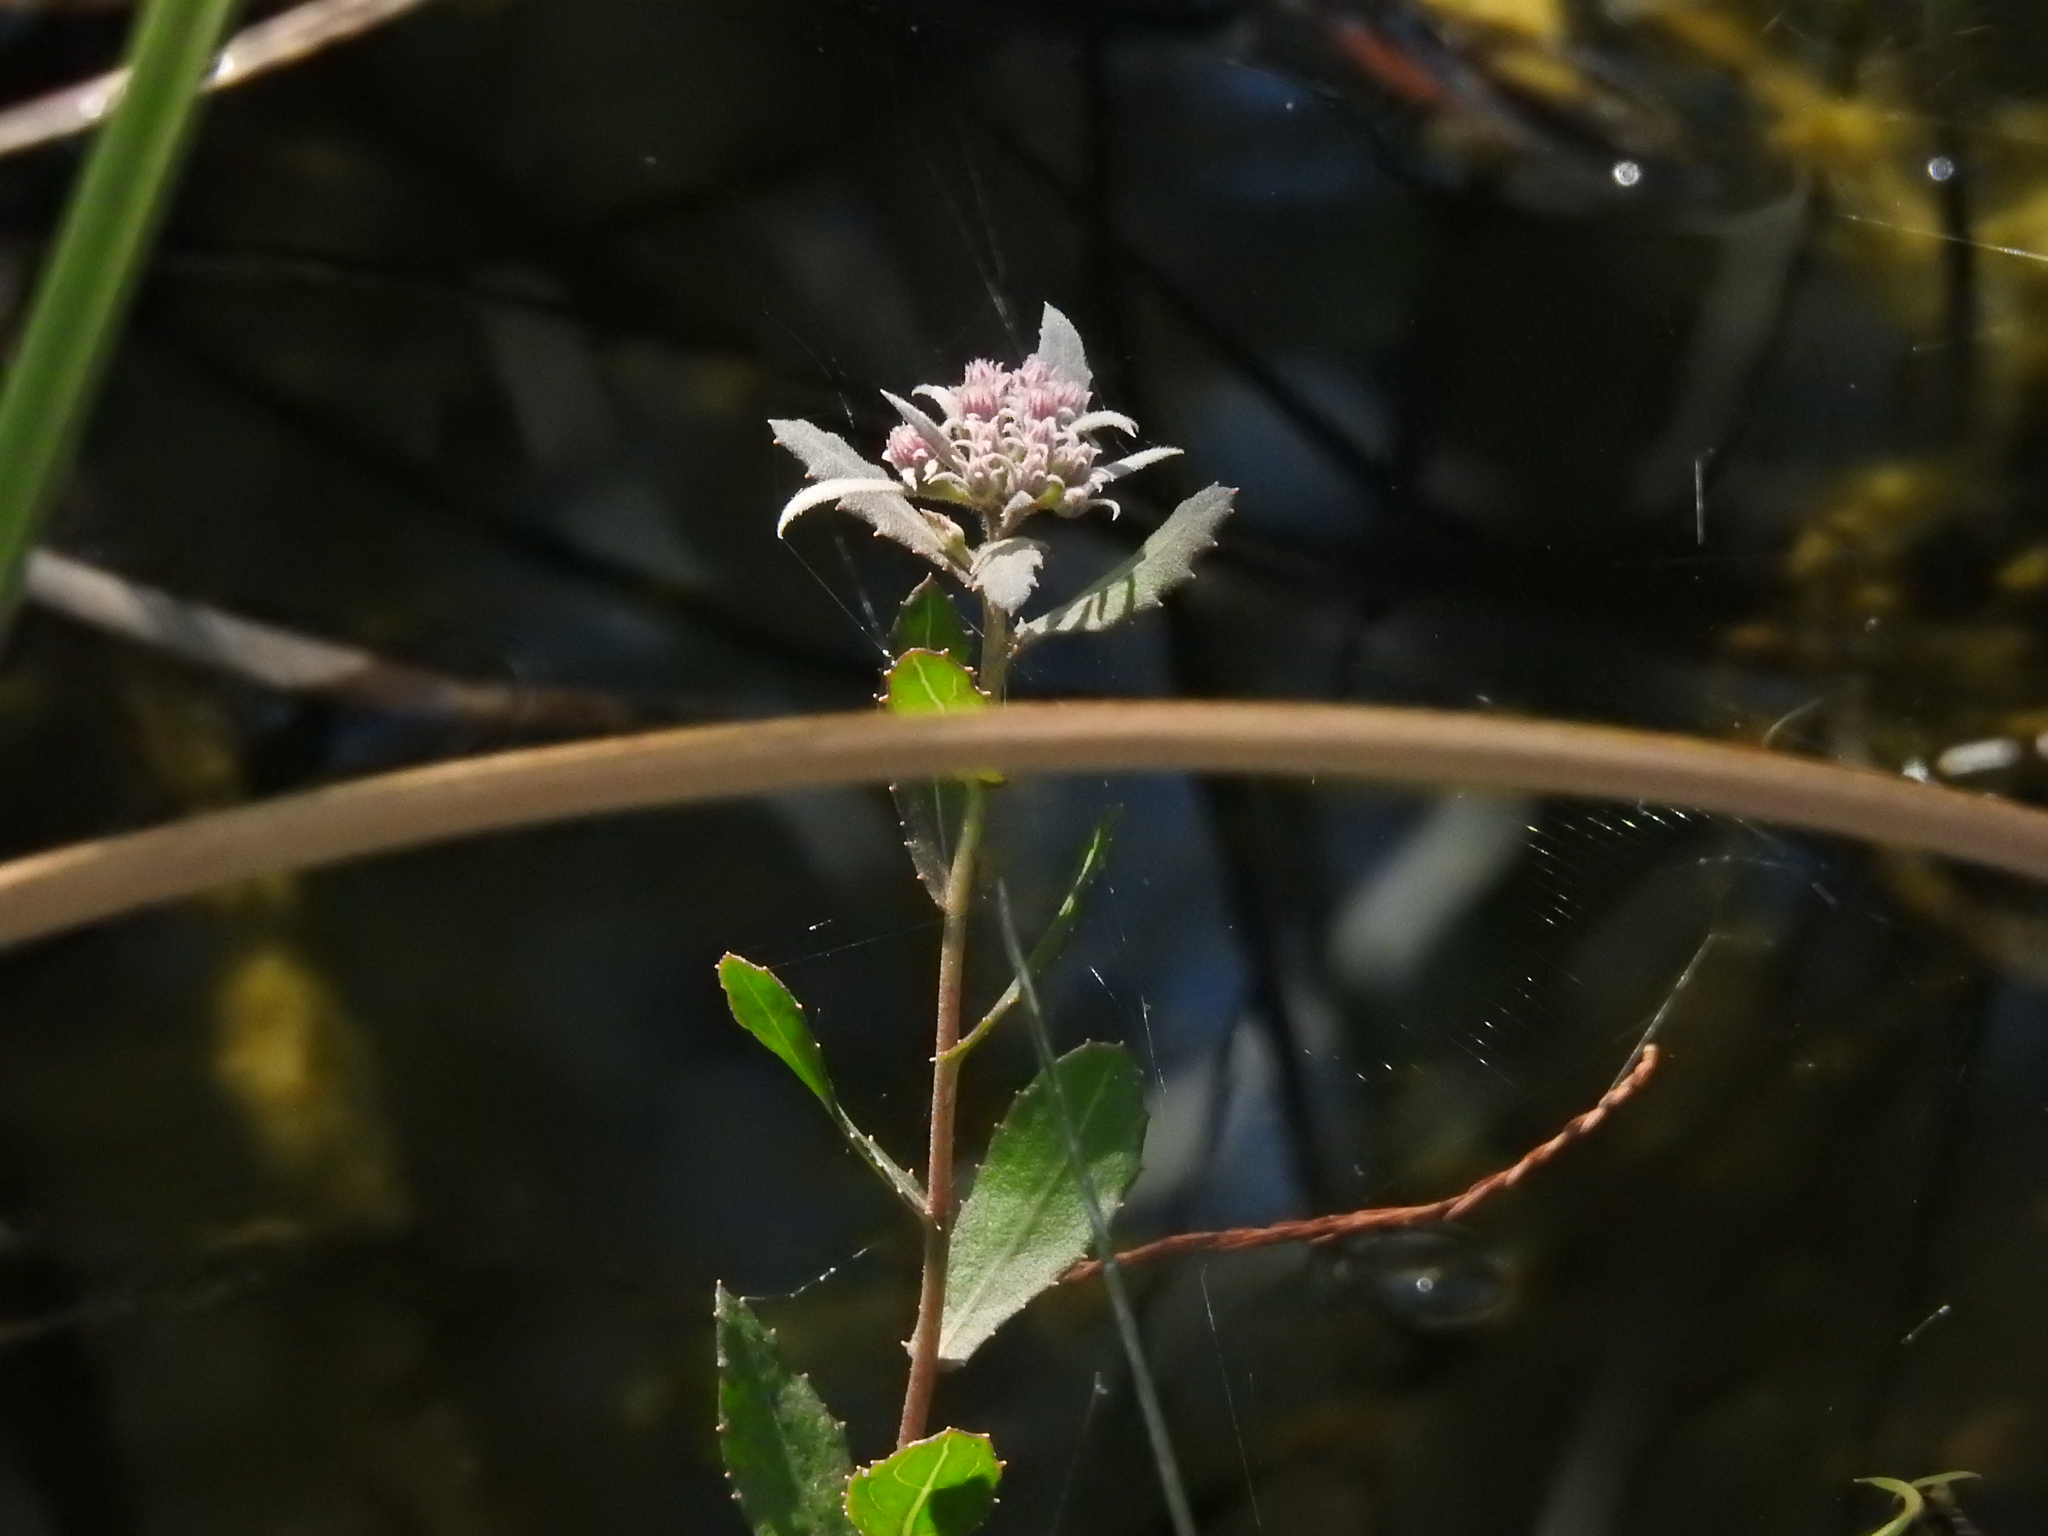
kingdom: Plantae
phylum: Tracheophyta
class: Magnoliopsida
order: Asterales
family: Asteraceae
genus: Pluchea
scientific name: Pluchea baccharis
